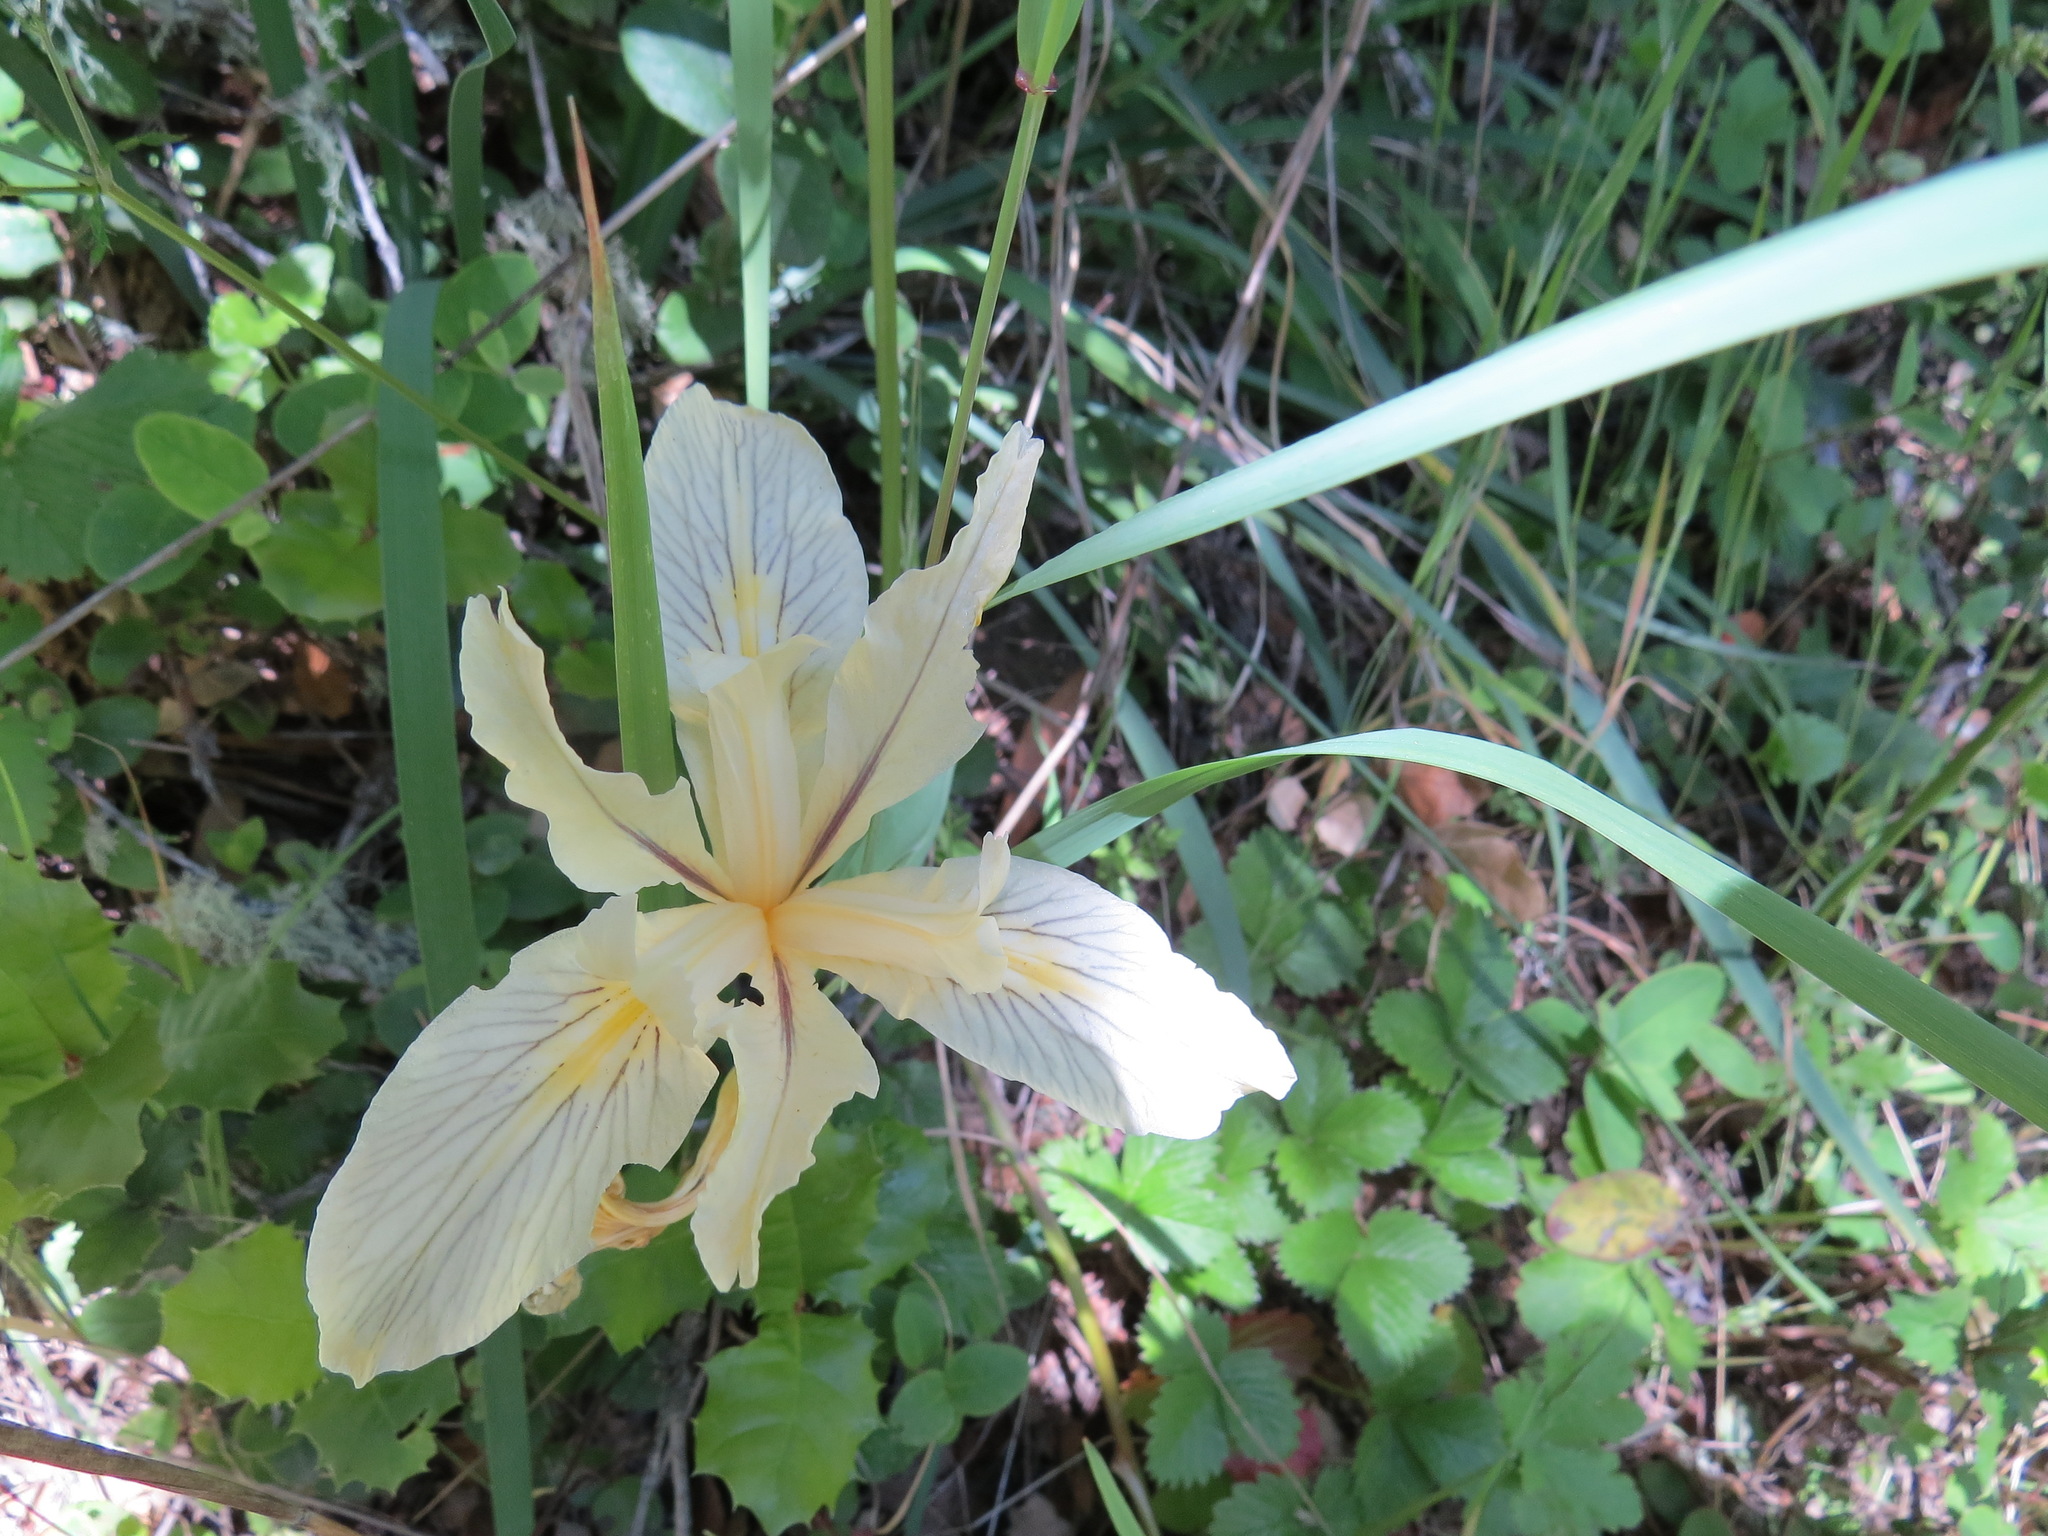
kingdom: Plantae
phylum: Tracheophyta
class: Liliopsida
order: Asparagales
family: Iridaceae
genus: Iris
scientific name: Iris fernaldii
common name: Fernald's iris
